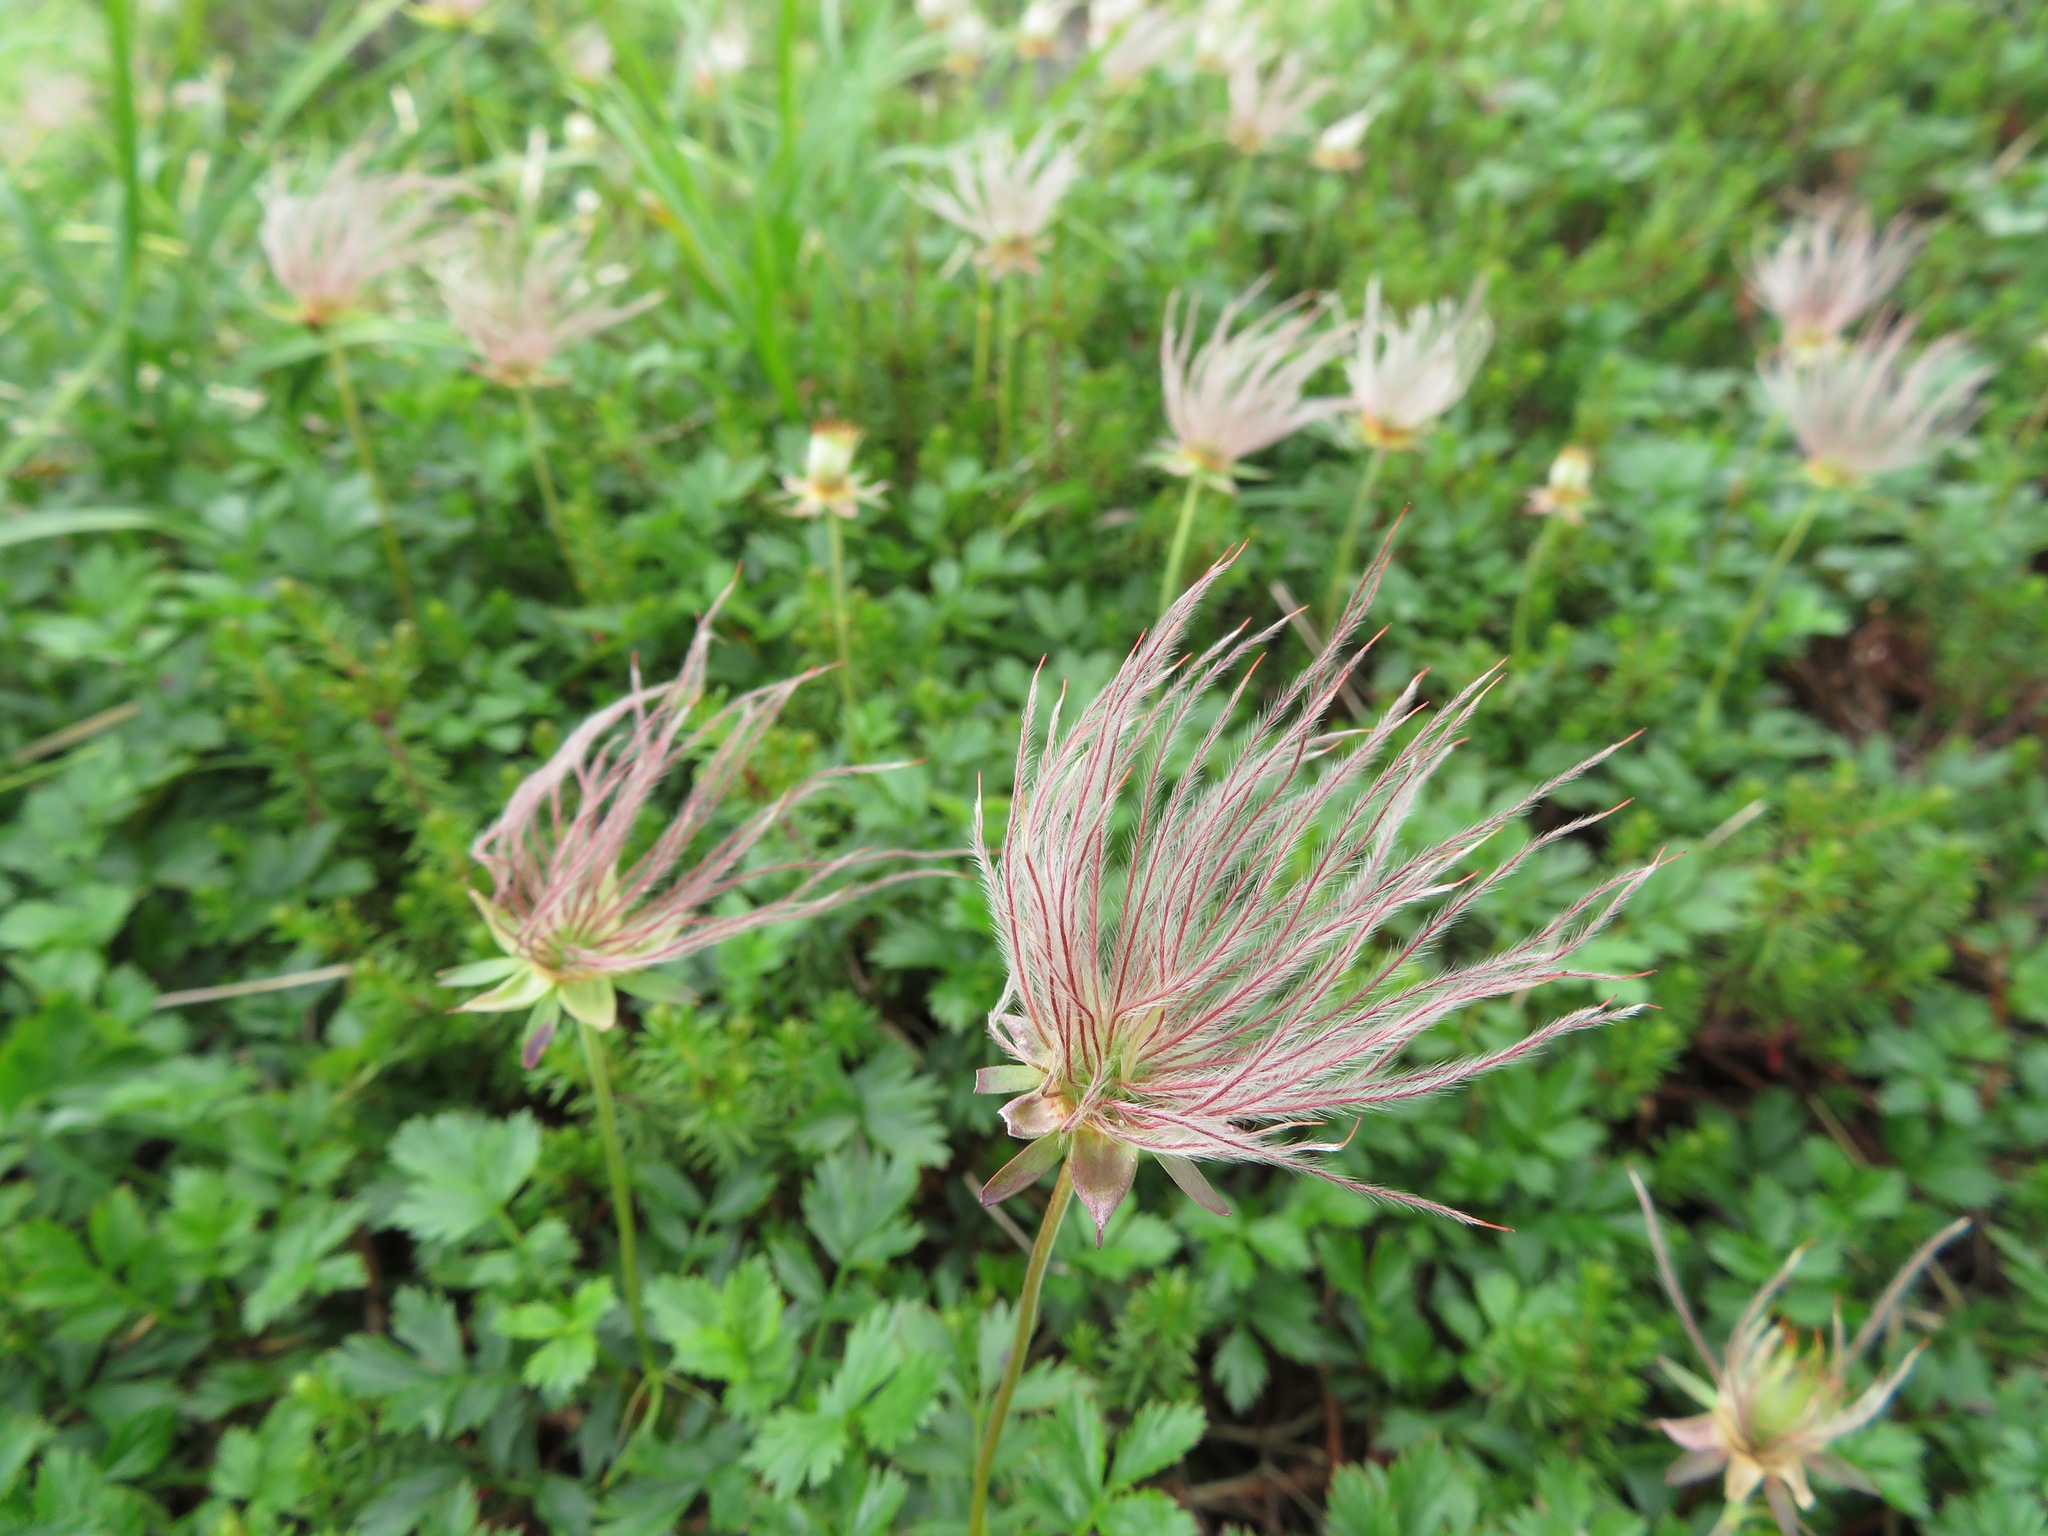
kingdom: Plantae
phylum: Tracheophyta
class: Magnoliopsida
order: Rosales
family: Rosaceae
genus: Geum
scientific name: Geum pentapetalum
